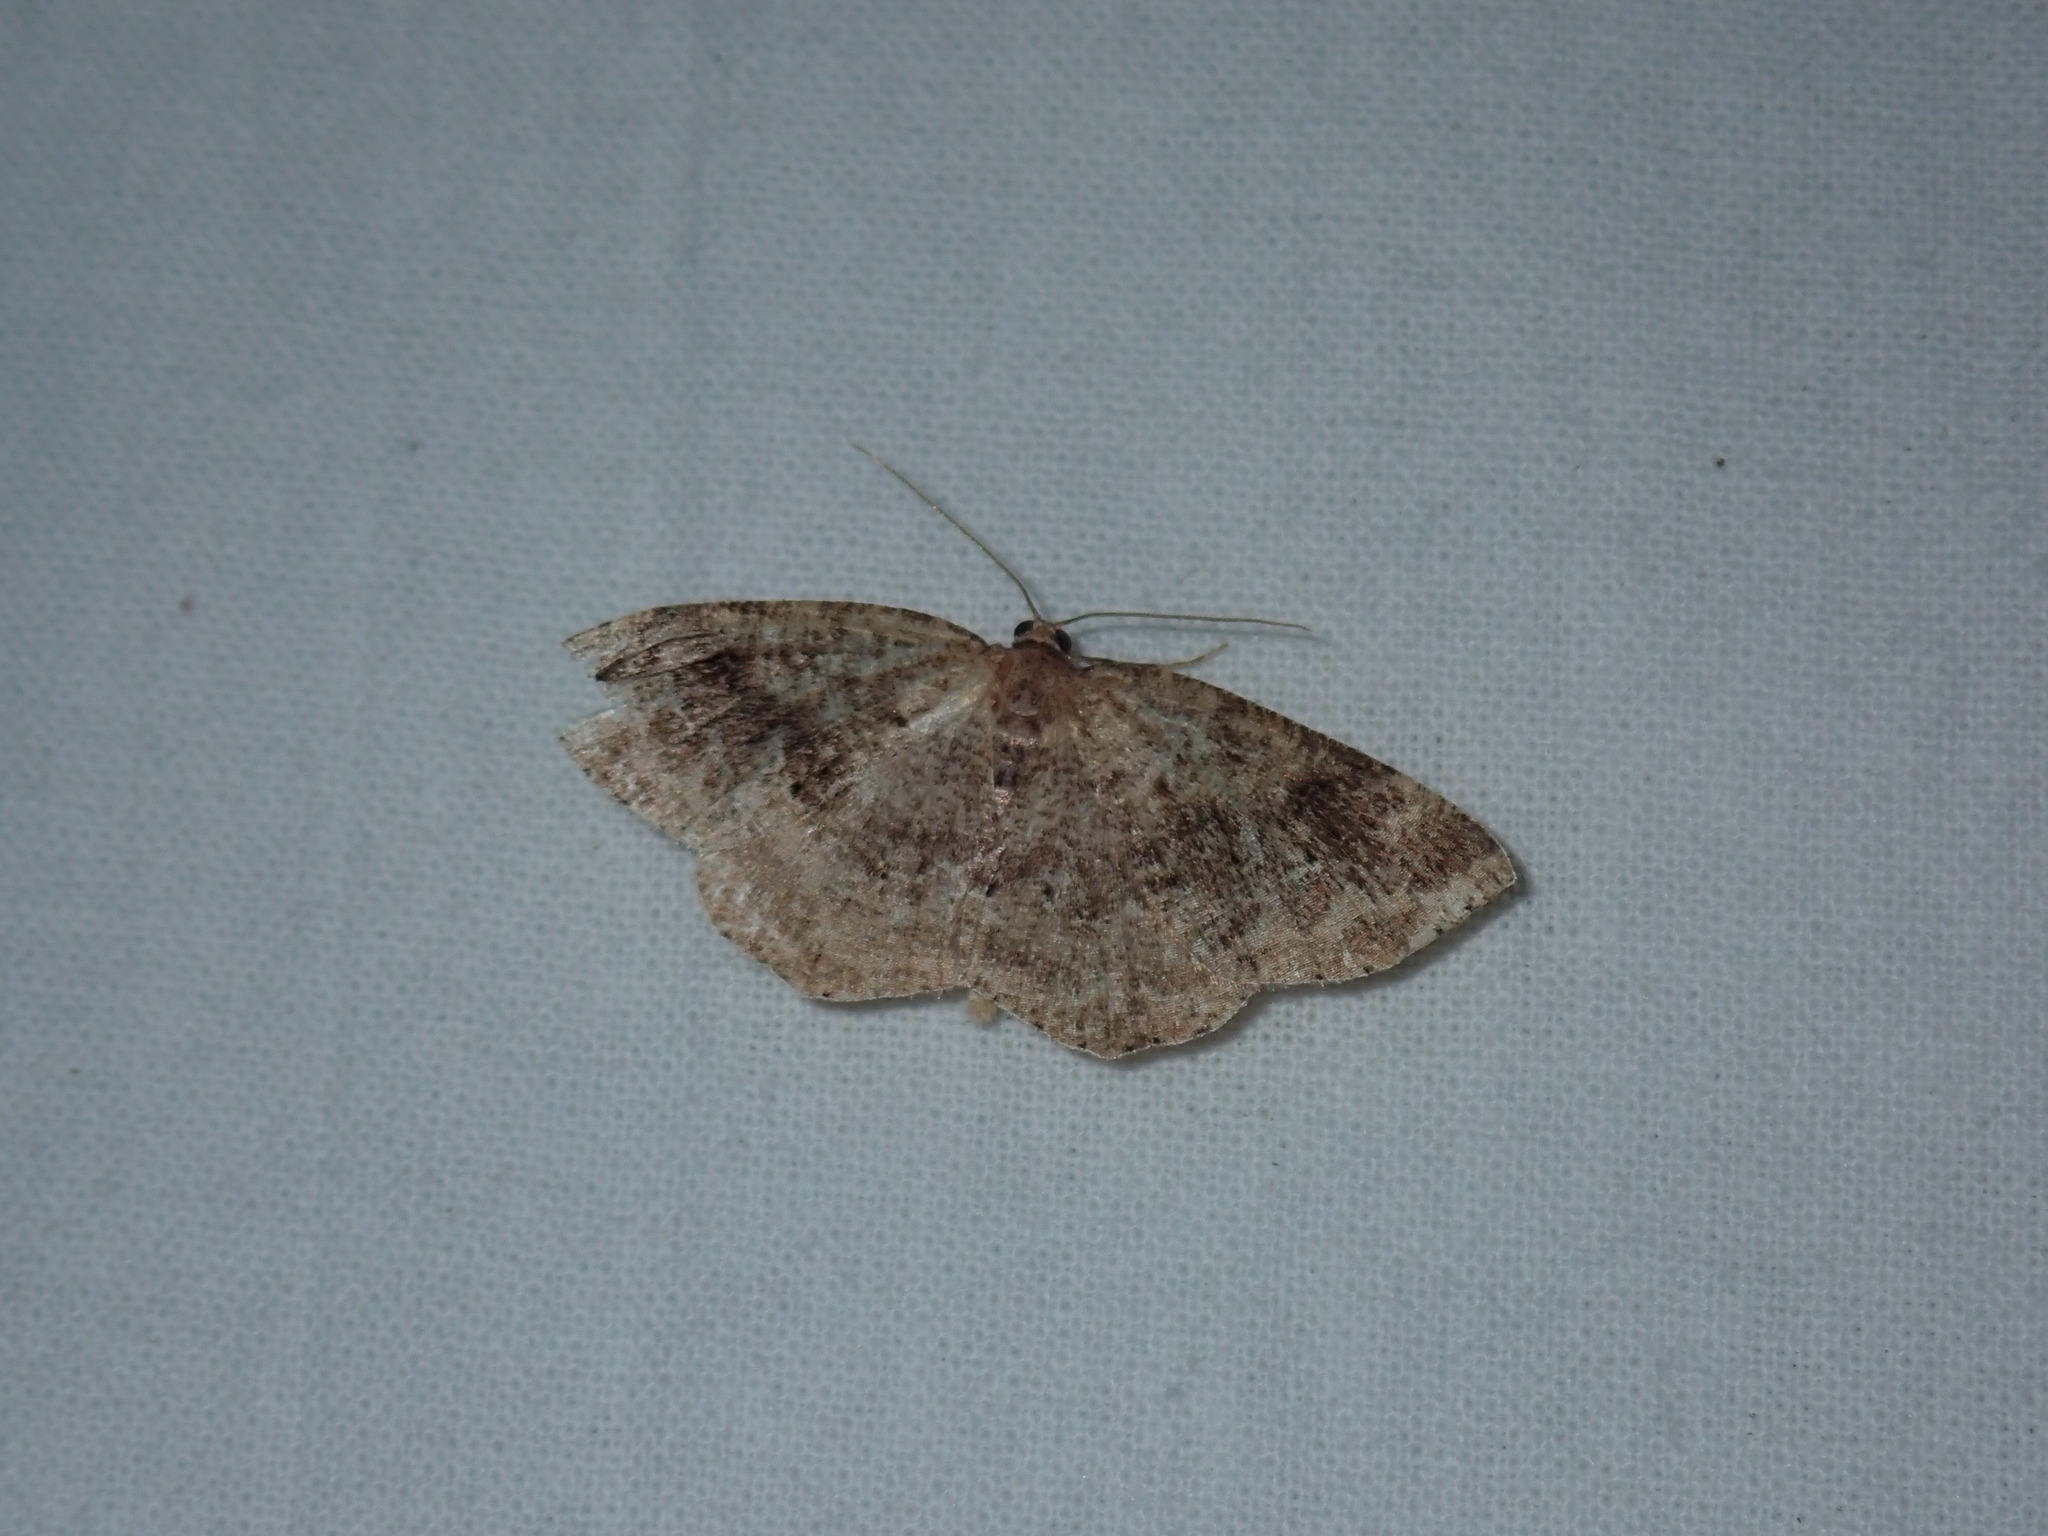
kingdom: Animalia
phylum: Arthropoda
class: Insecta
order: Lepidoptera
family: Geometridae
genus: Homochlodes
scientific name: Homochlodes fritillaria
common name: Pale homochlodes
